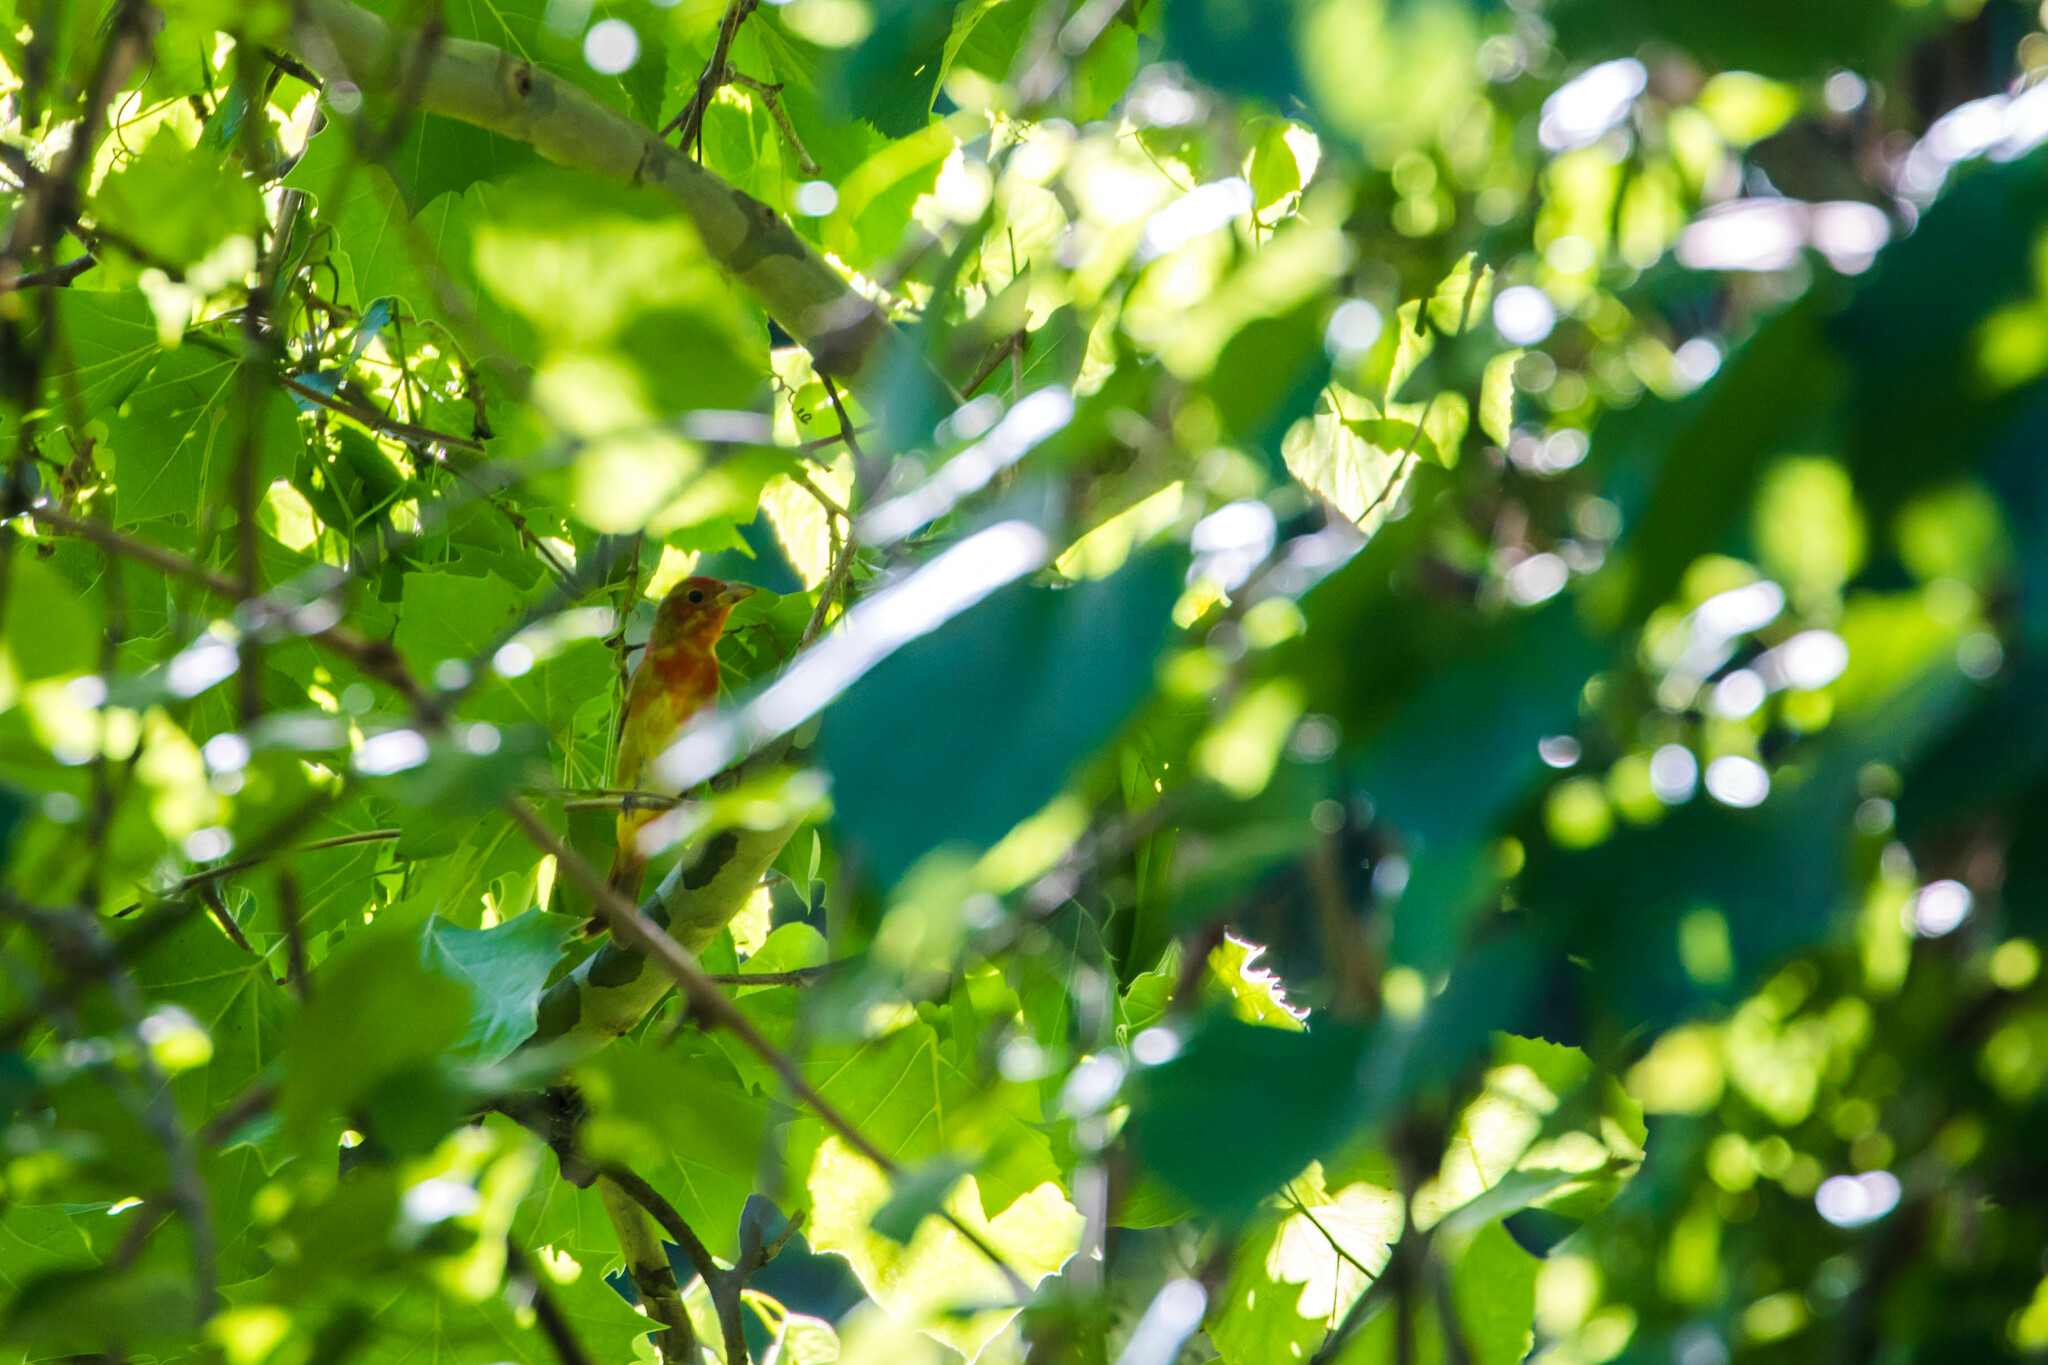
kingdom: Animalia
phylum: Chordata
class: Aves
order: Passeriformes
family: Cardinalidae
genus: Piranga
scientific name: Piranga rubra
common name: Summer tanager
